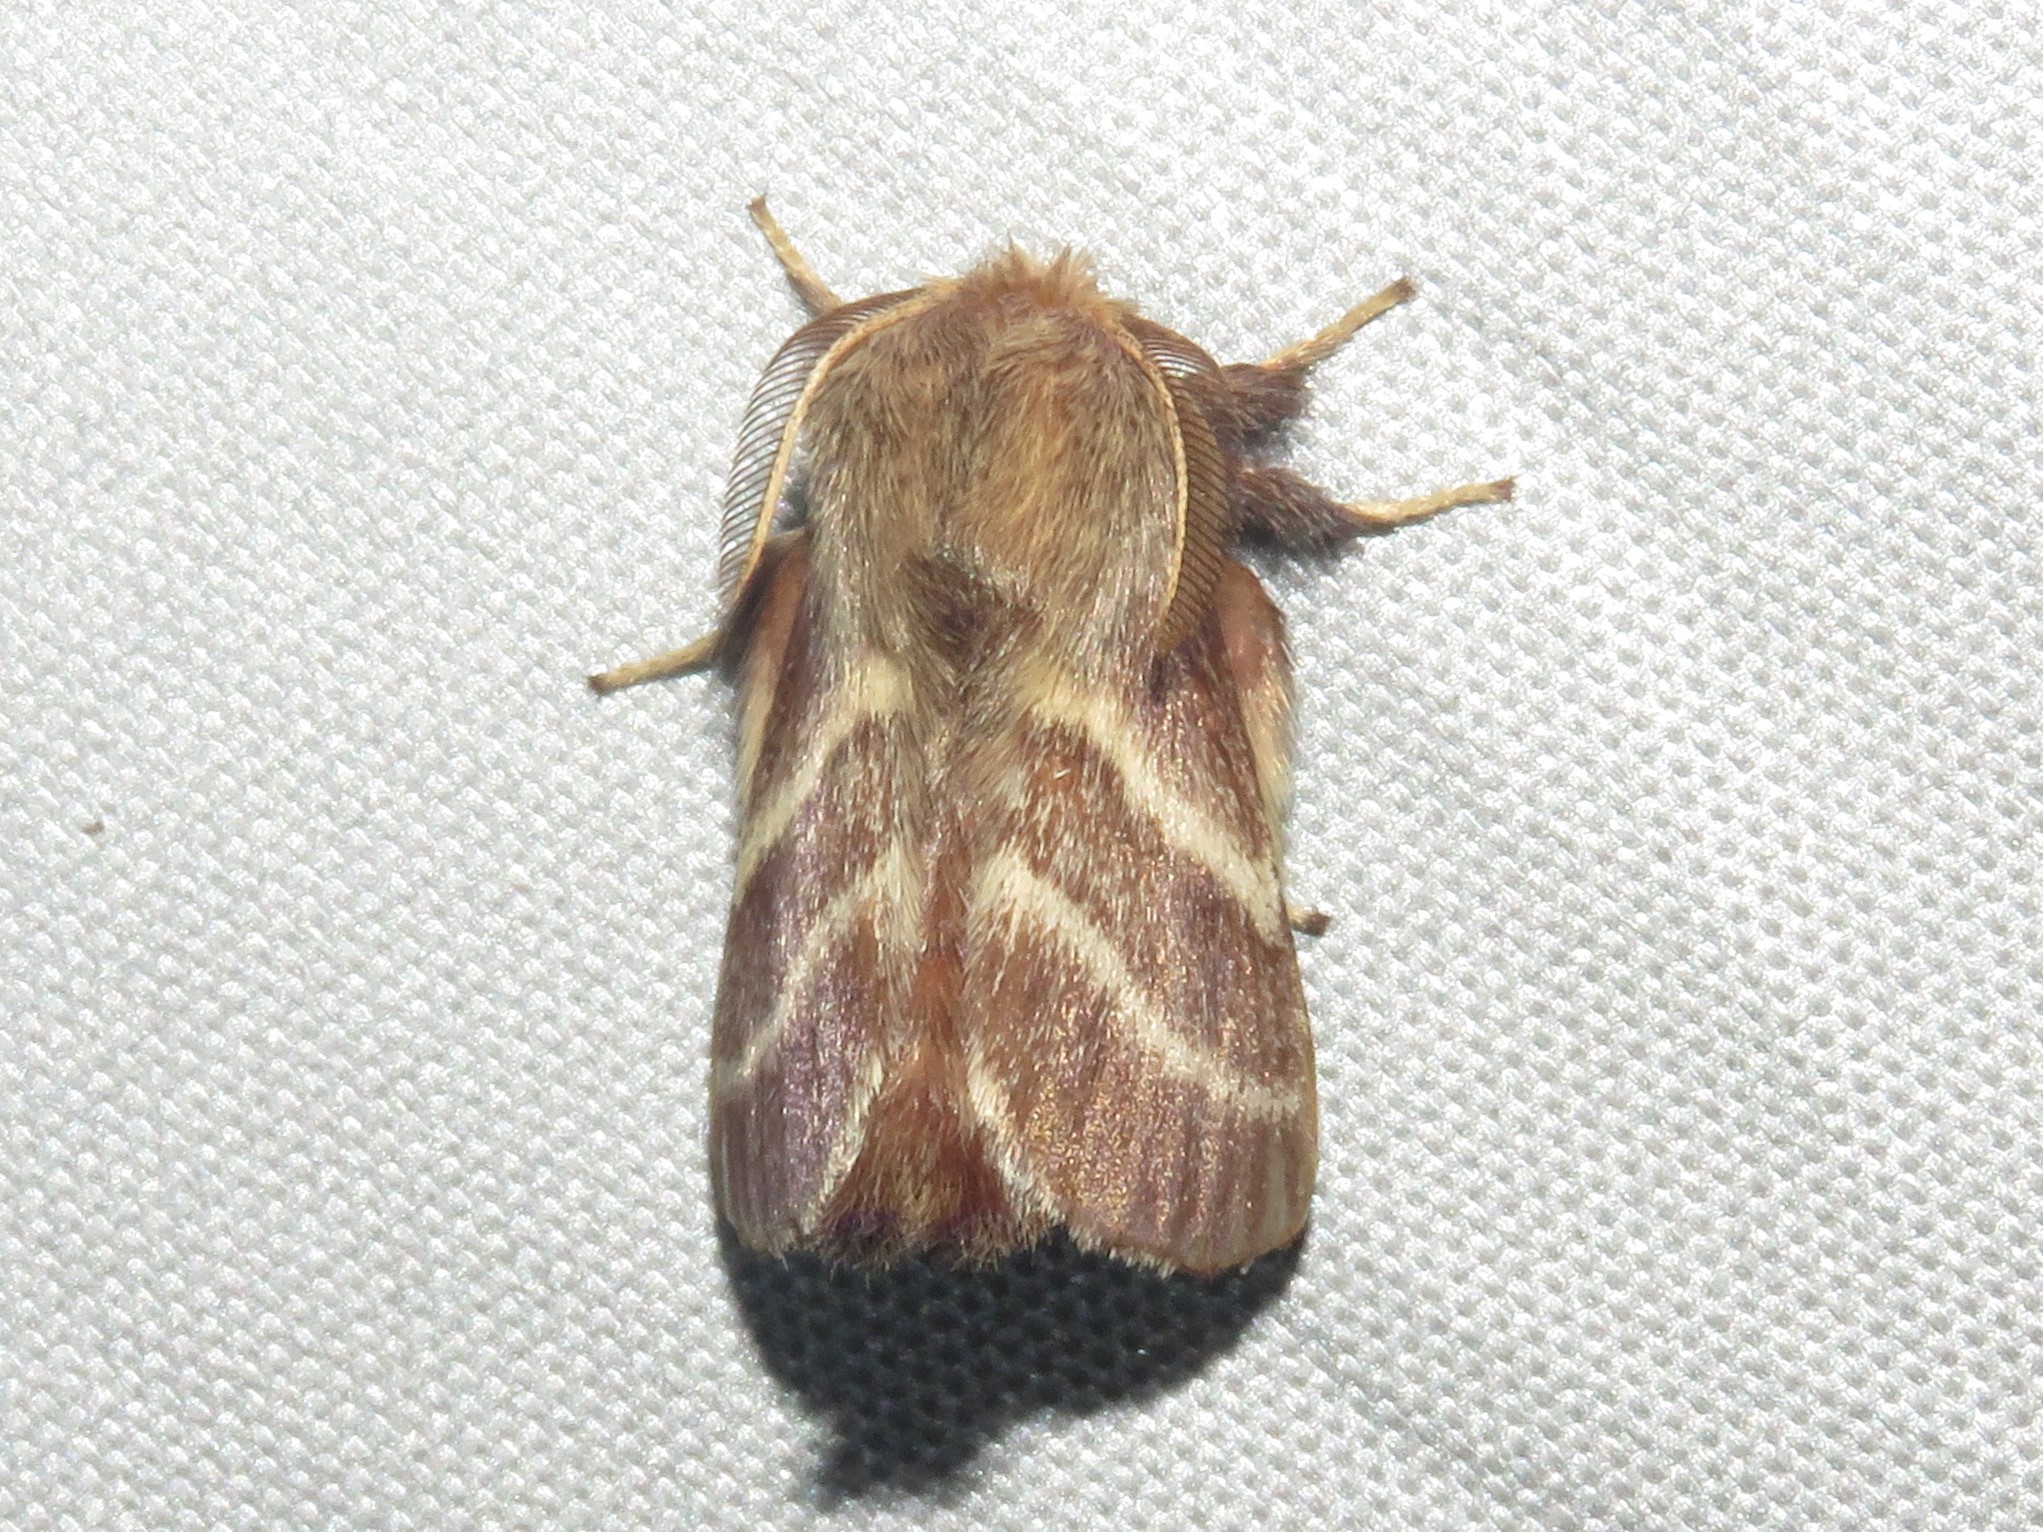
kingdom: Animalia
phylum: Arthropoda
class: Insecta
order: Lepidoptera
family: Lasiocampidae
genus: Malacosoma
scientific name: Malacosoma americana
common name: Eastern tent caterpillar moth
